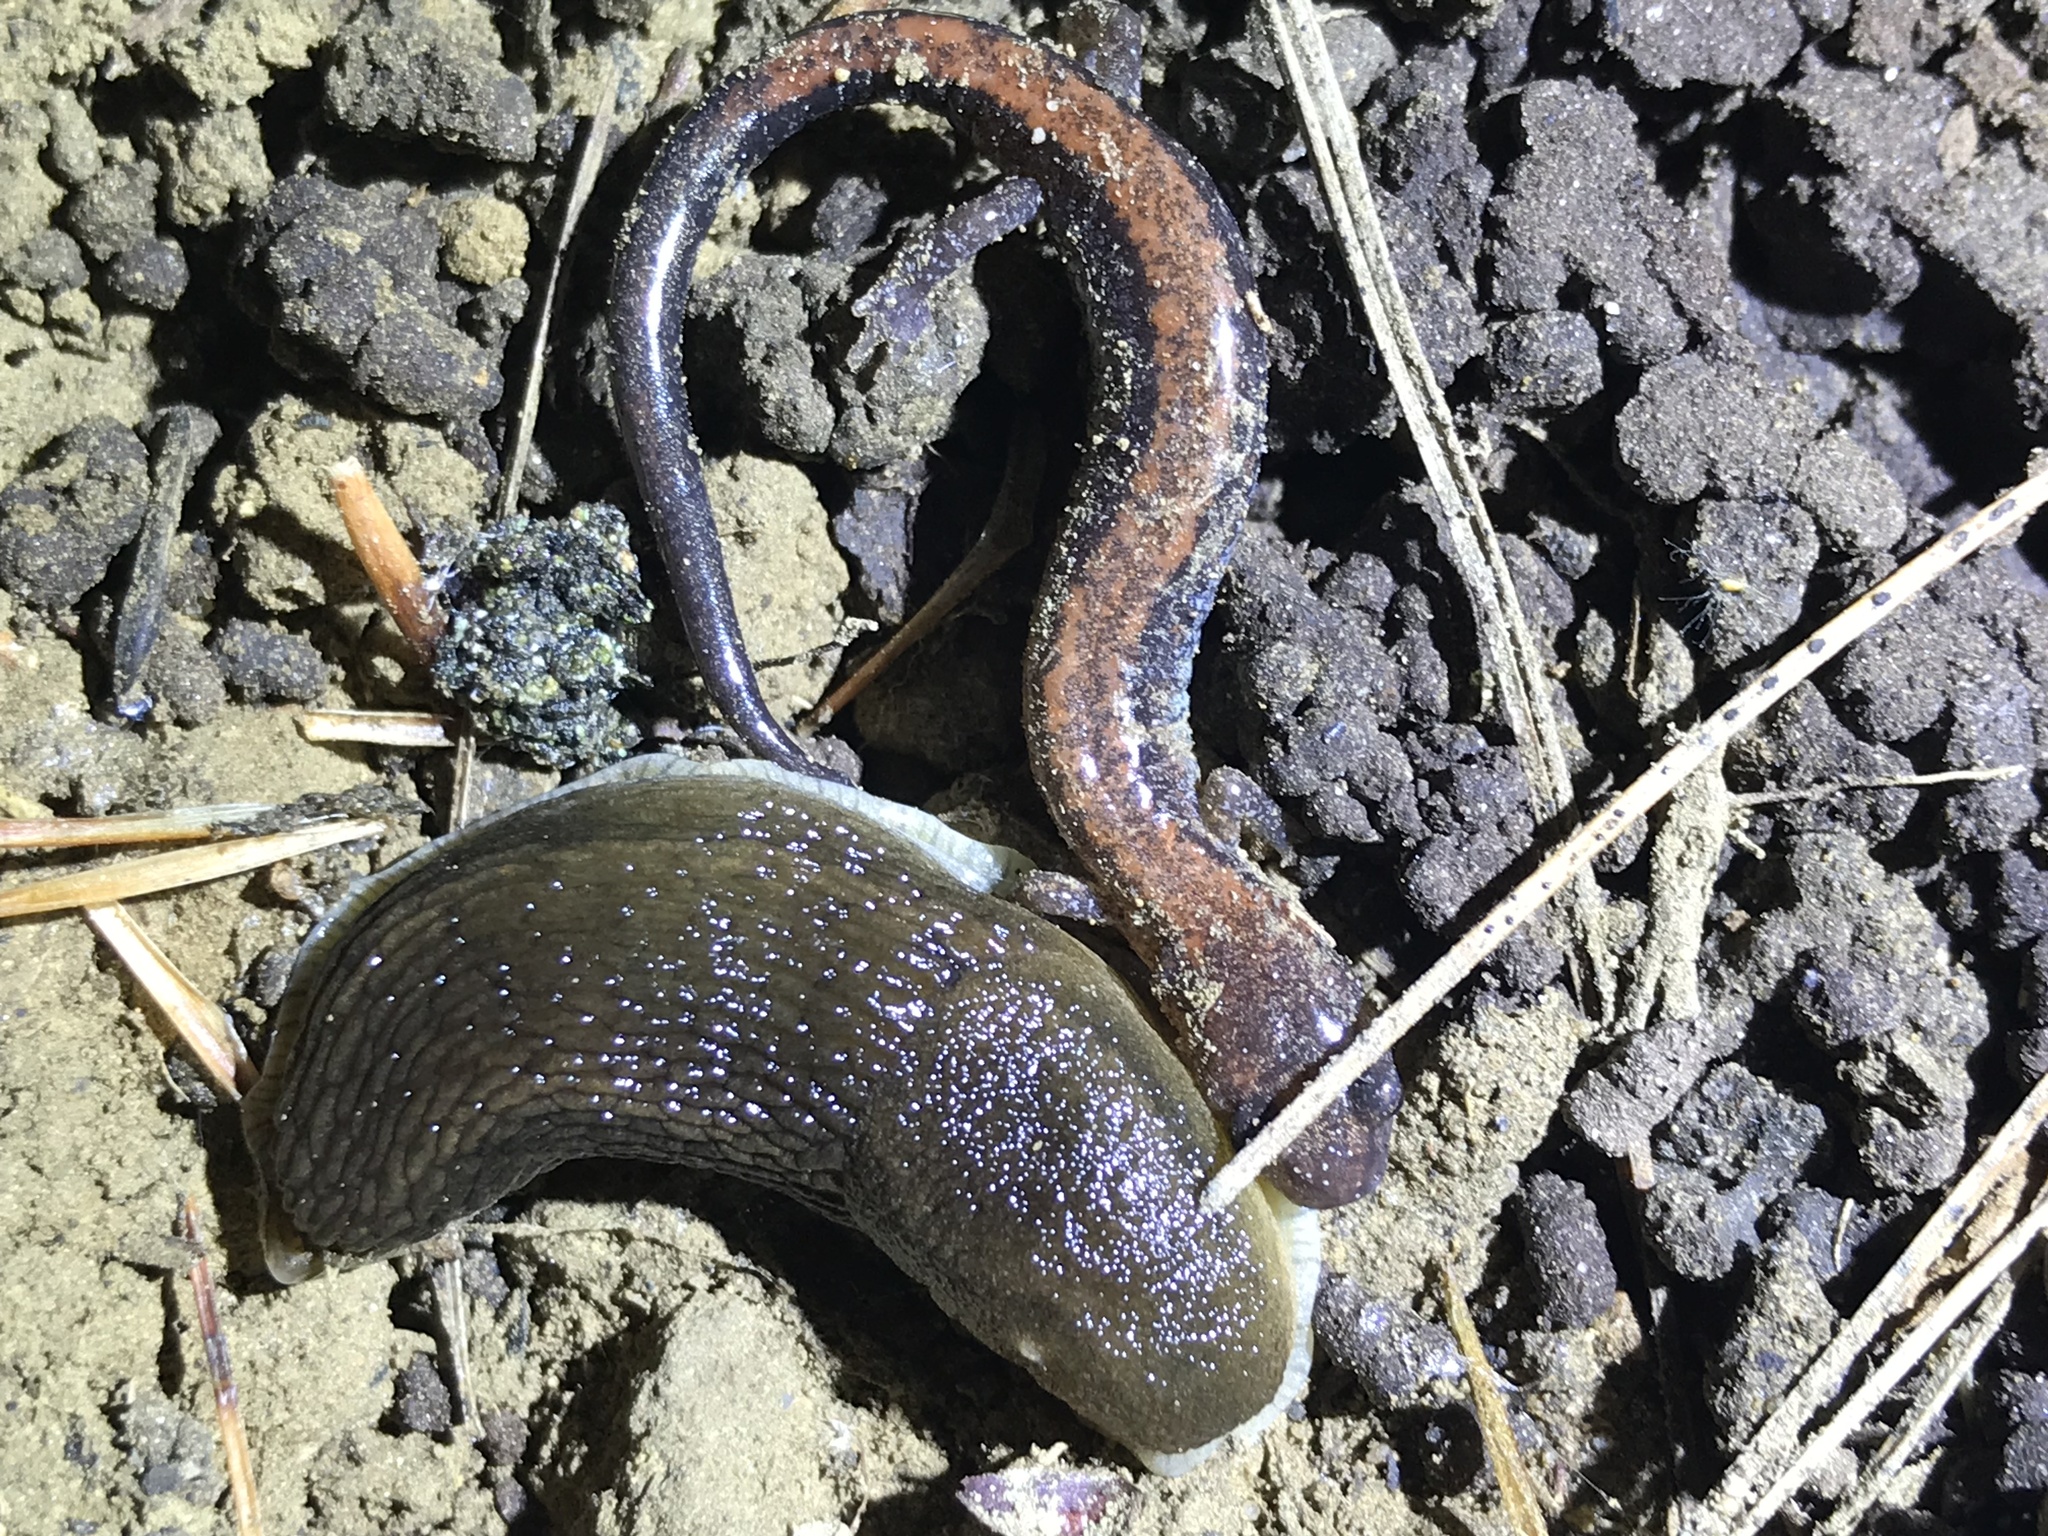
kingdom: Animalia
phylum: Chordata
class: Amphibia
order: Caudata
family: Plethodontidae
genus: Plethodon
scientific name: Plethodon cinereus
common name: Redback salamander
